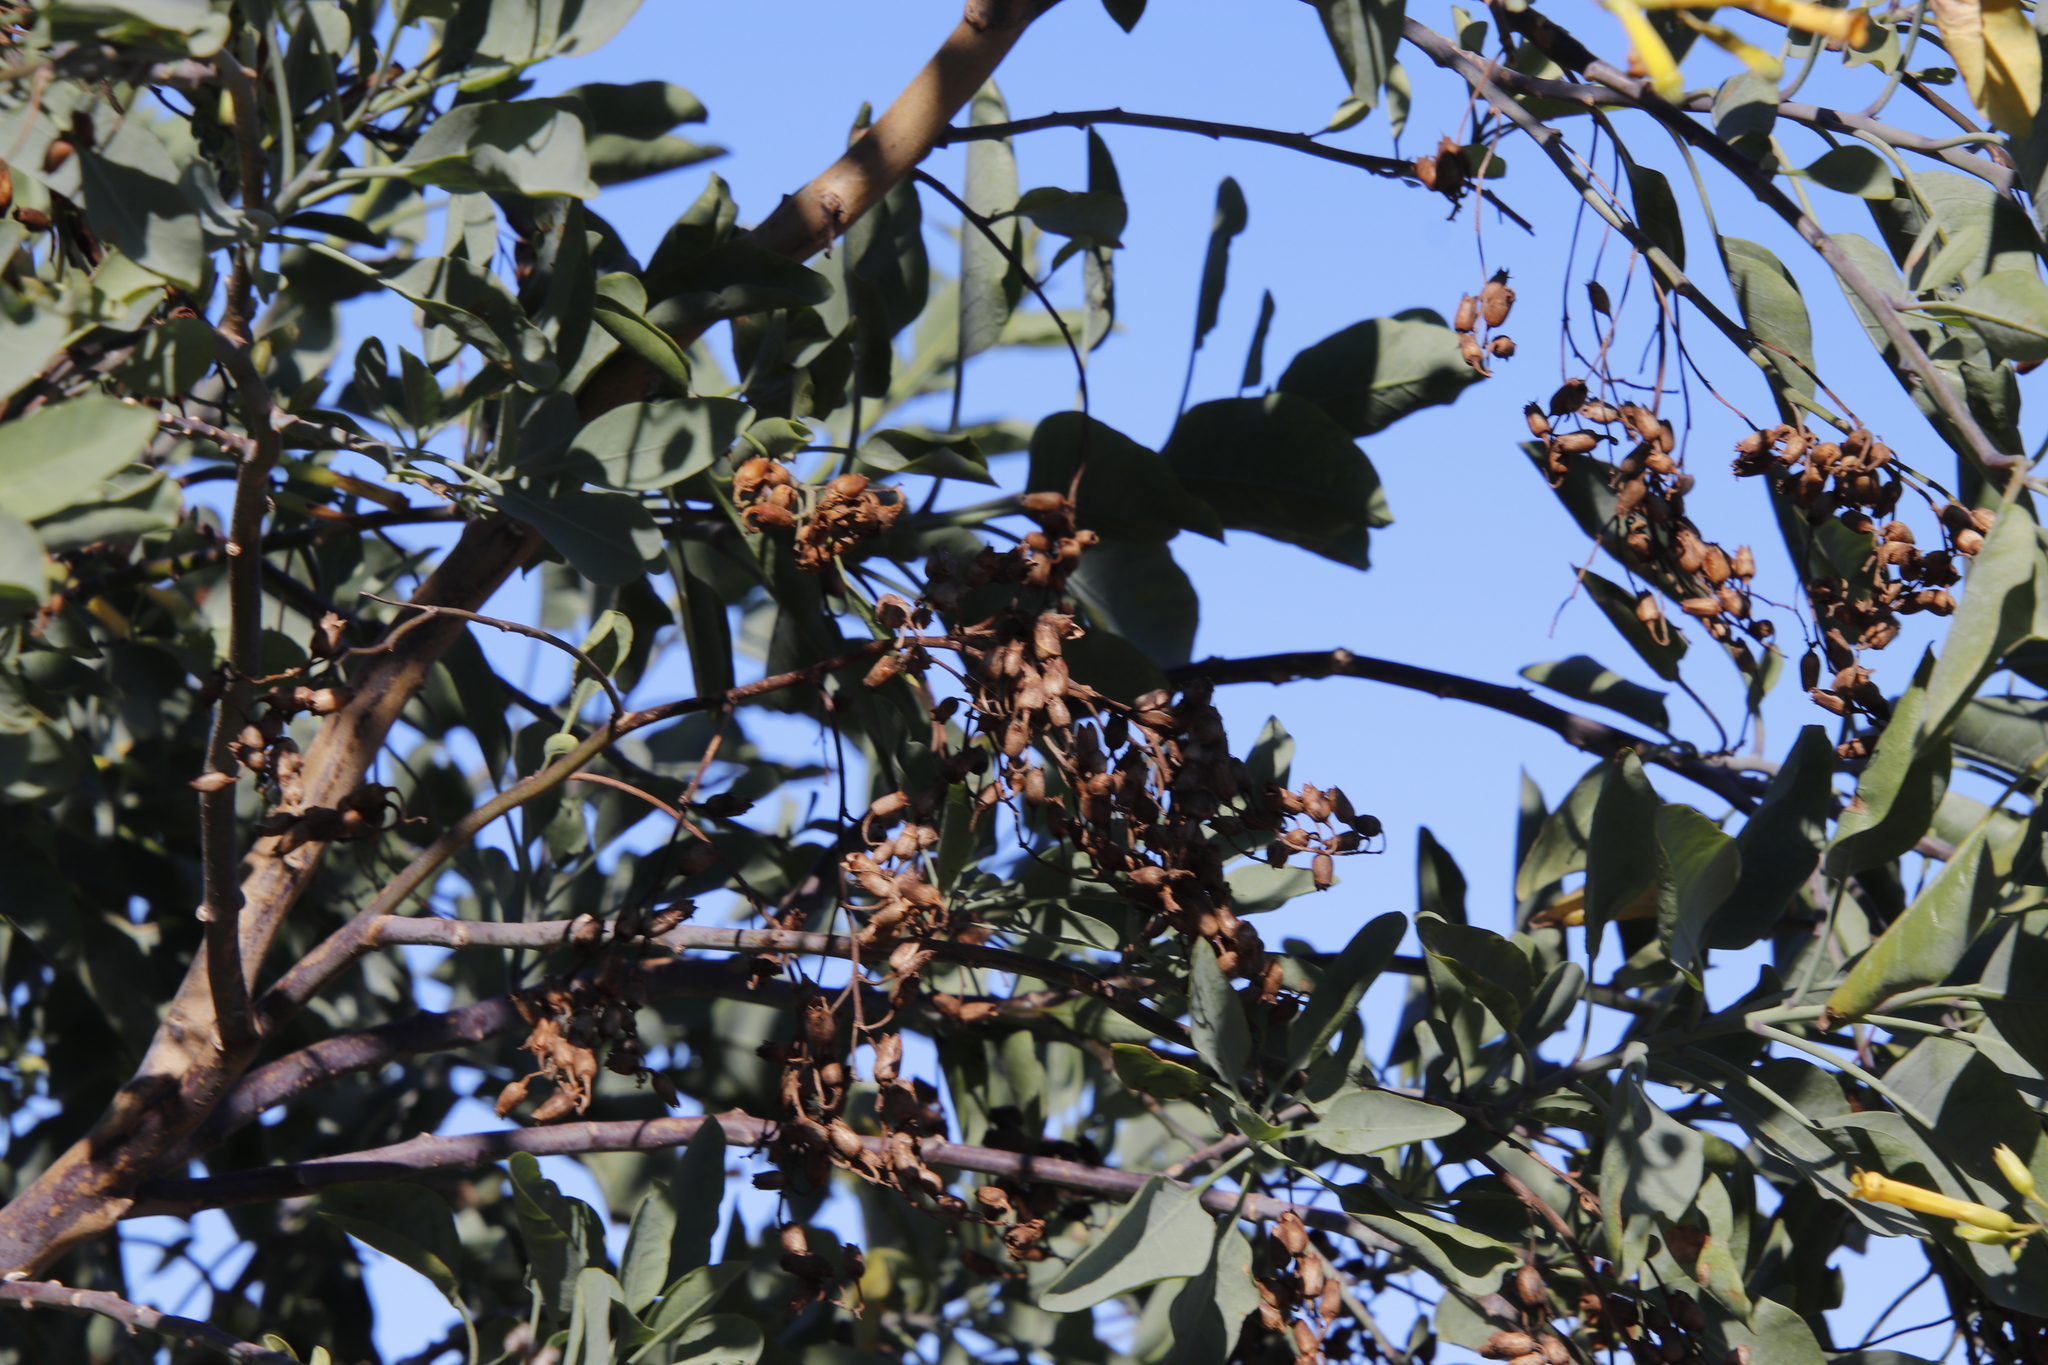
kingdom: Plantae
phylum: Tracheophyta
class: Magnoliopsida
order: Solanales
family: Solanaceae
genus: Nicotiana
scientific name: Nicotiana glauca
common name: Tree tobacco
